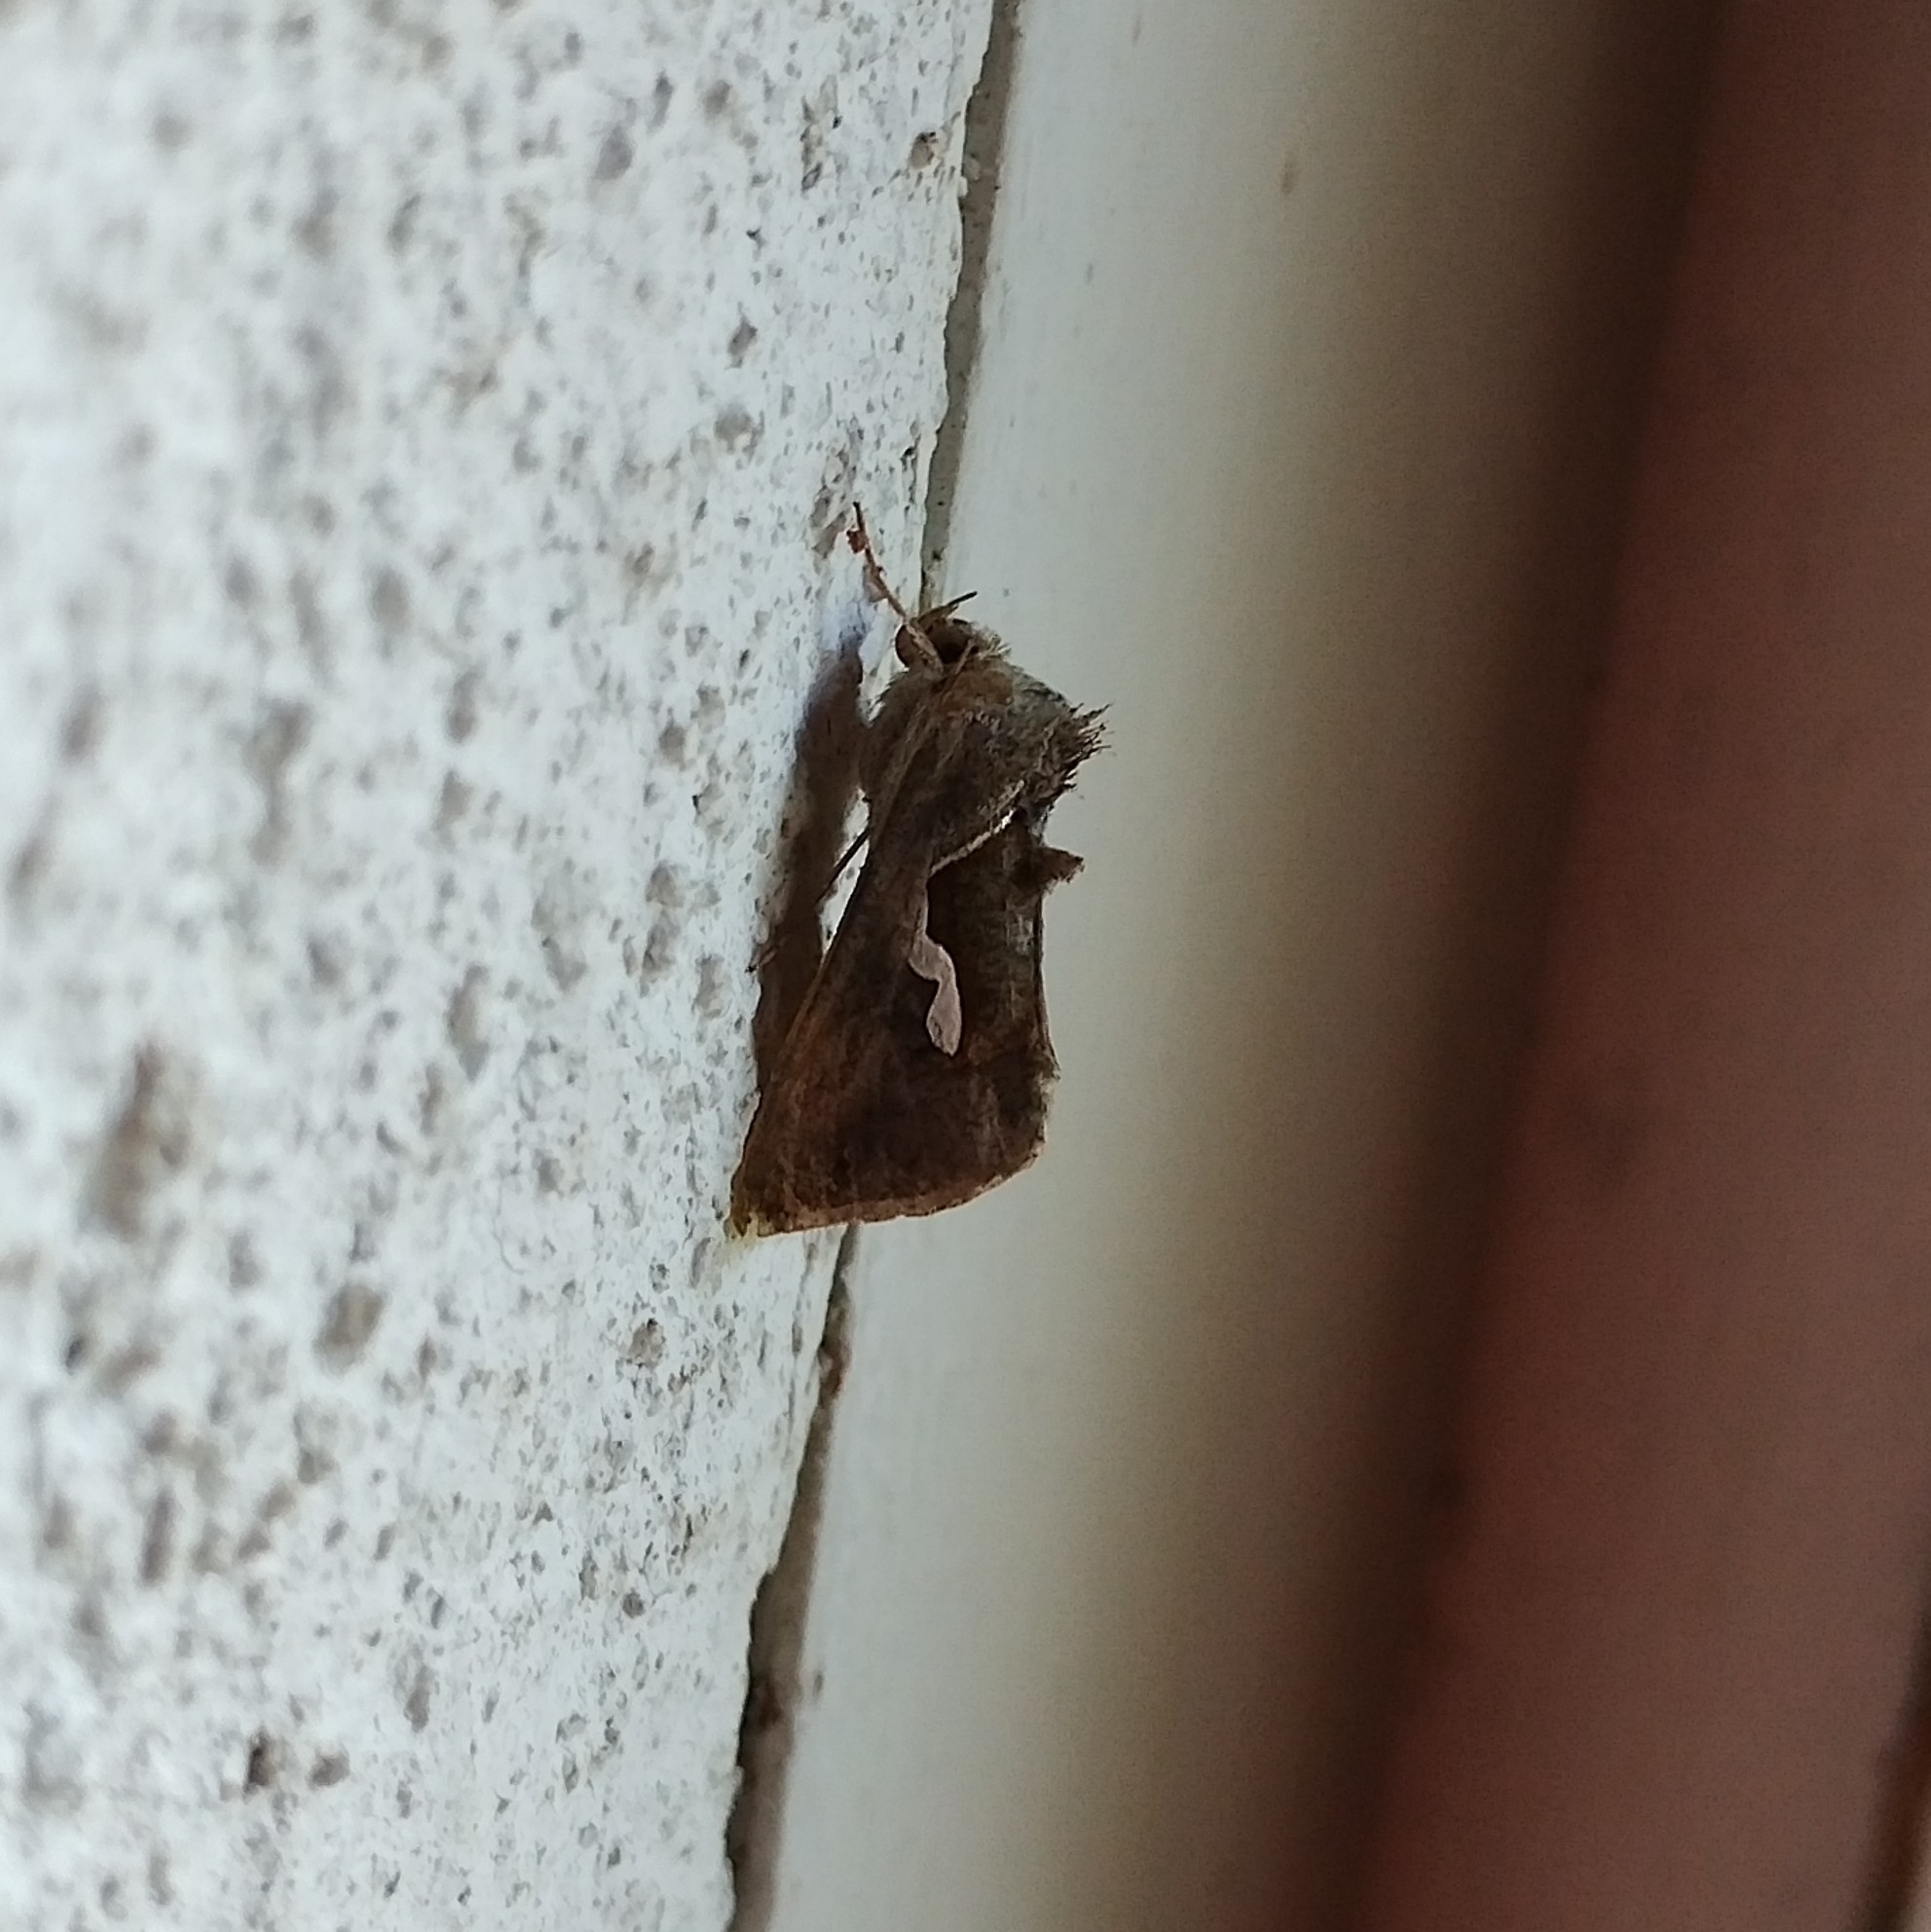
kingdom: Animalia
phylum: Arthropoda
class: Insecta
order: Lepidoptera
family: Noctuidae
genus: Macdunnoughia
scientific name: Macdunnoughia confusa
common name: Dewick's plusia
